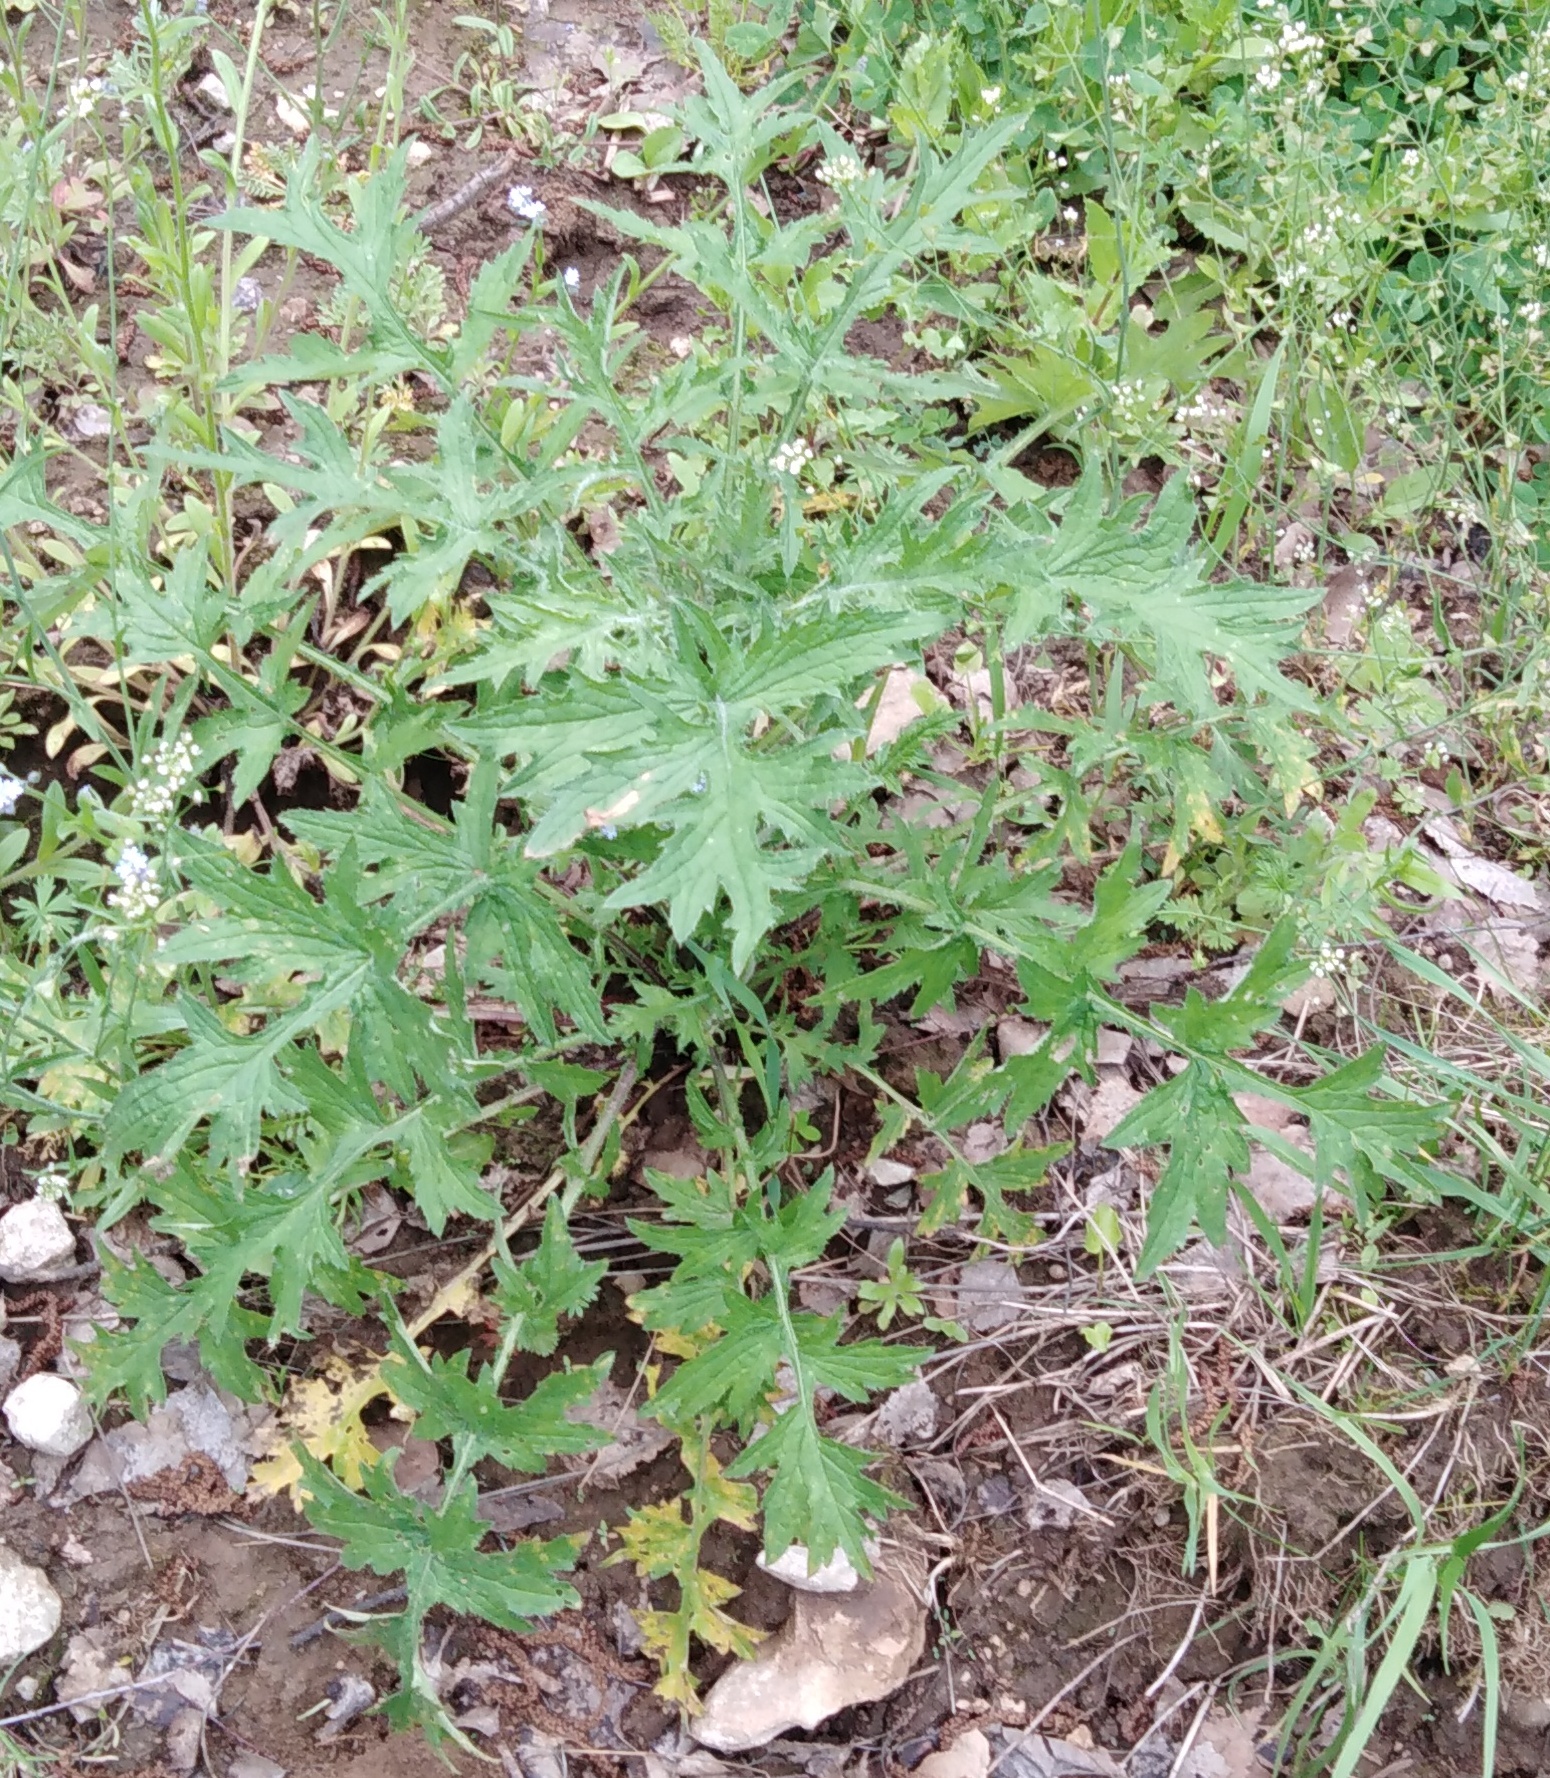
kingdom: Plantae
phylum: Tracheophyta
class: Magnoliopsida
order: Asterales
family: Asteraceae
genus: Carduus
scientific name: Carduus crispus
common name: Welted thistle
